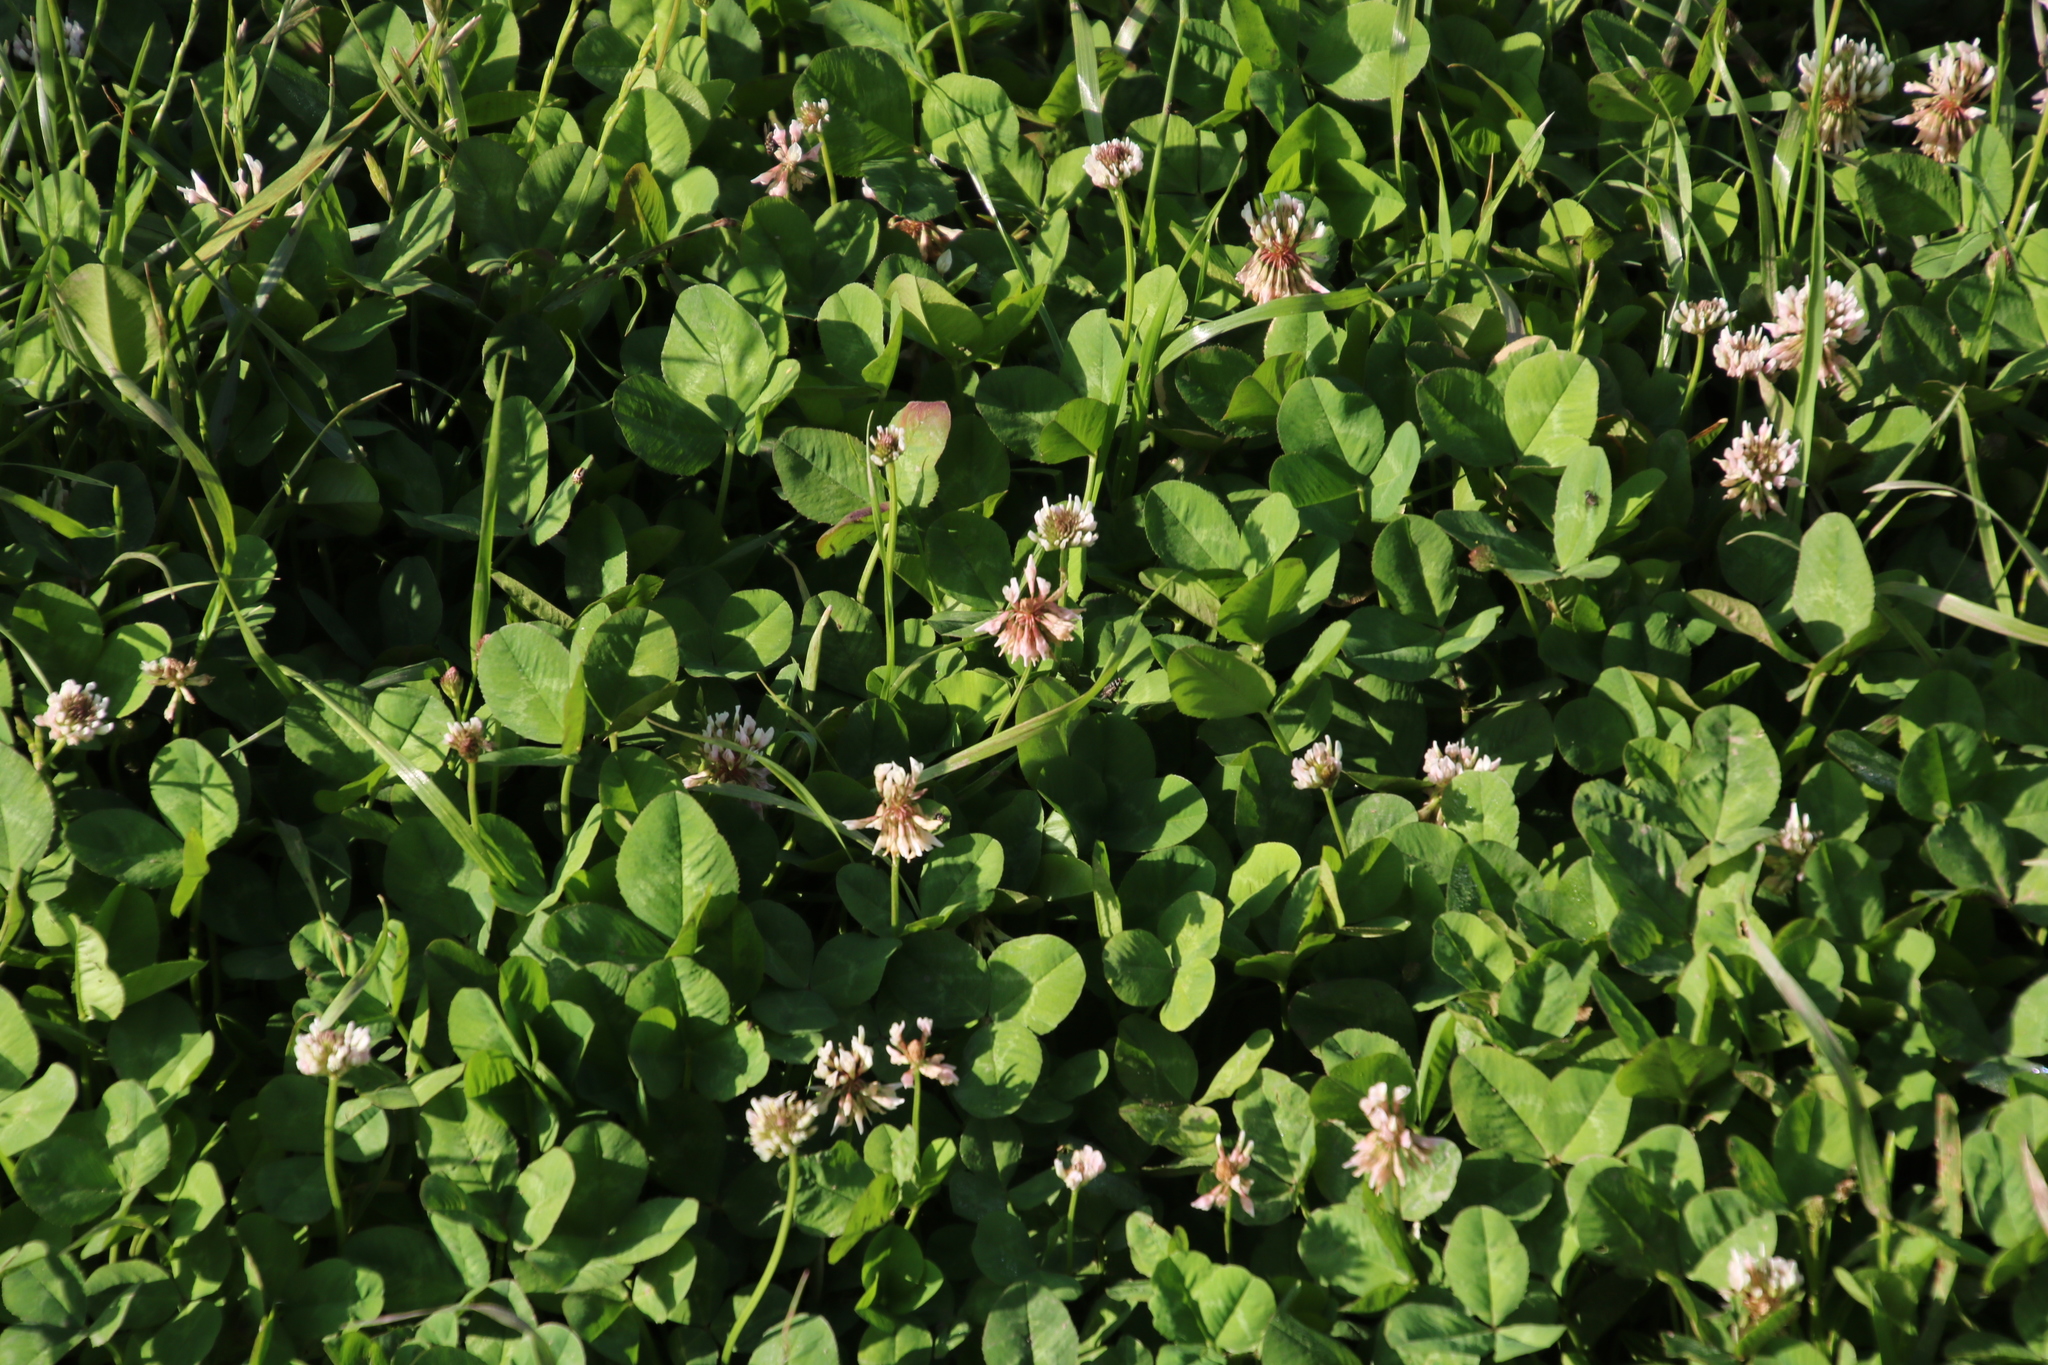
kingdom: Plantae
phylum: Tracheophyta
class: Magnoliopsida
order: Fabales
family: Fabaceae
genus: Trifolium
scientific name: Trifolium repens
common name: White clover
